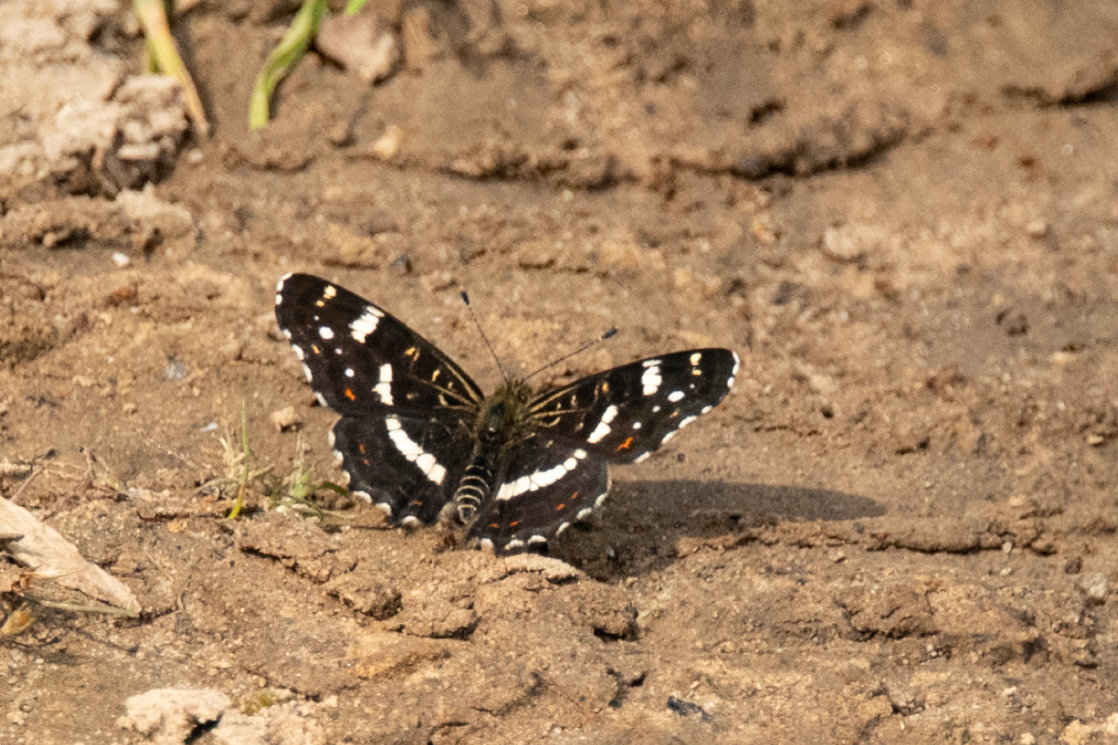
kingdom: Animalia
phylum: Arthropoda
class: Insecta
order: Lepidoptera
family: Nymphalidae
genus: Araschnia
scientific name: Araschnia levana
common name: Map butterfly
